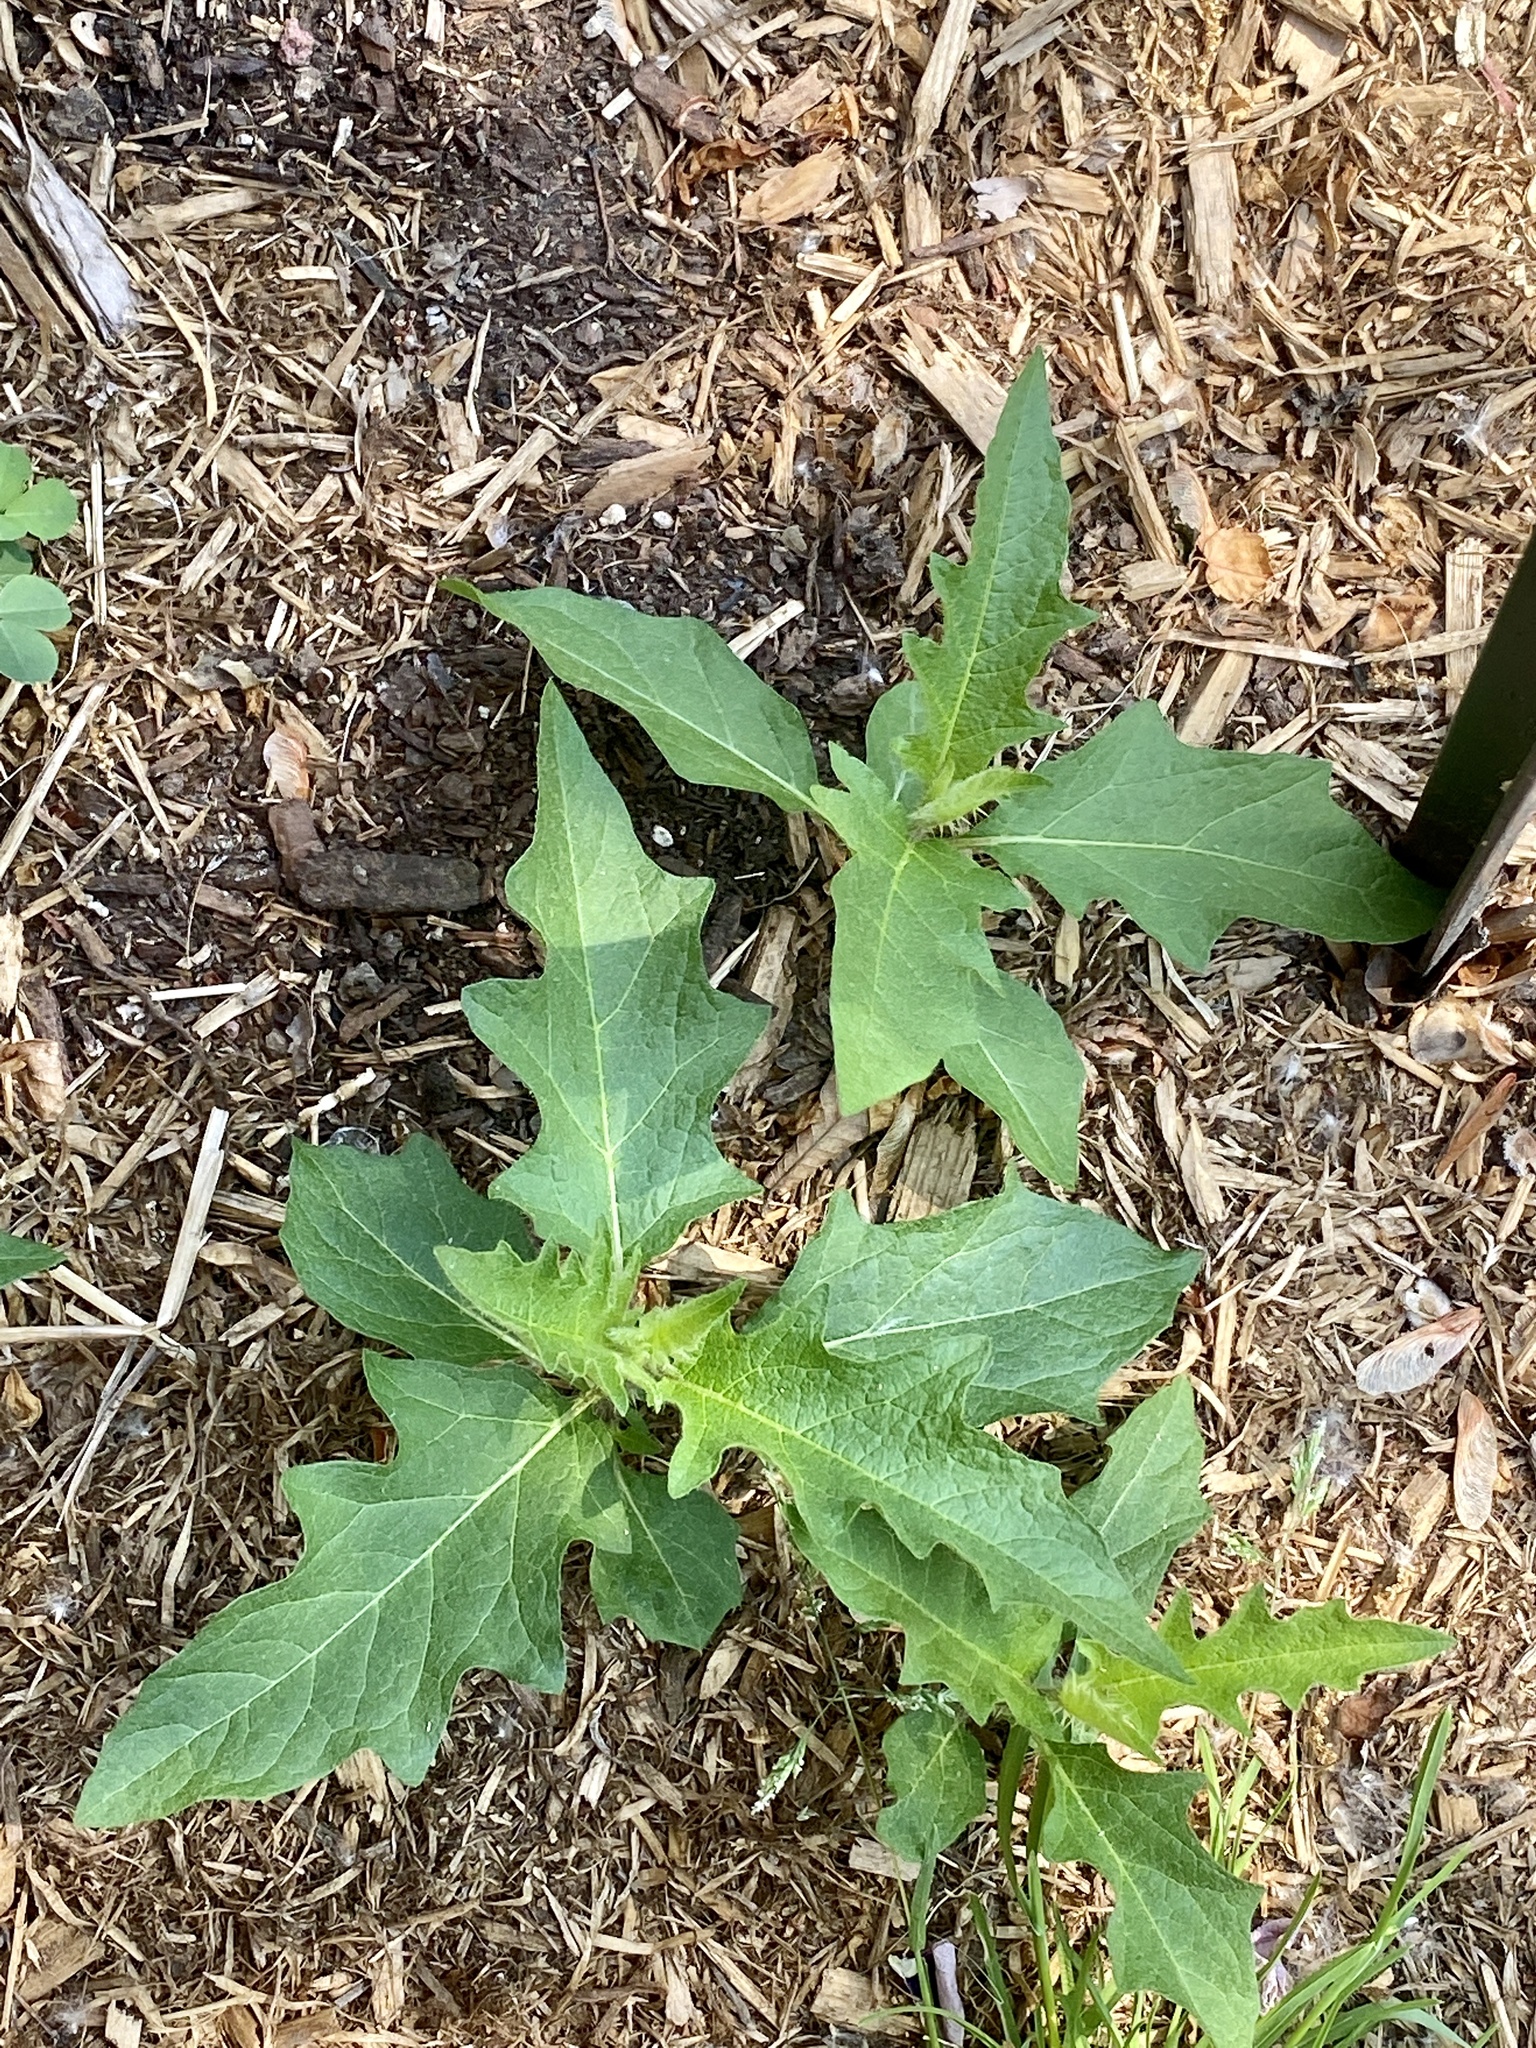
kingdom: Plantae
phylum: Tracheophyta
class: Magnoliopsida
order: Solanales
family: Solanaceae
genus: Solanum
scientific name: Solanum carolinense
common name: Horse-nettle
